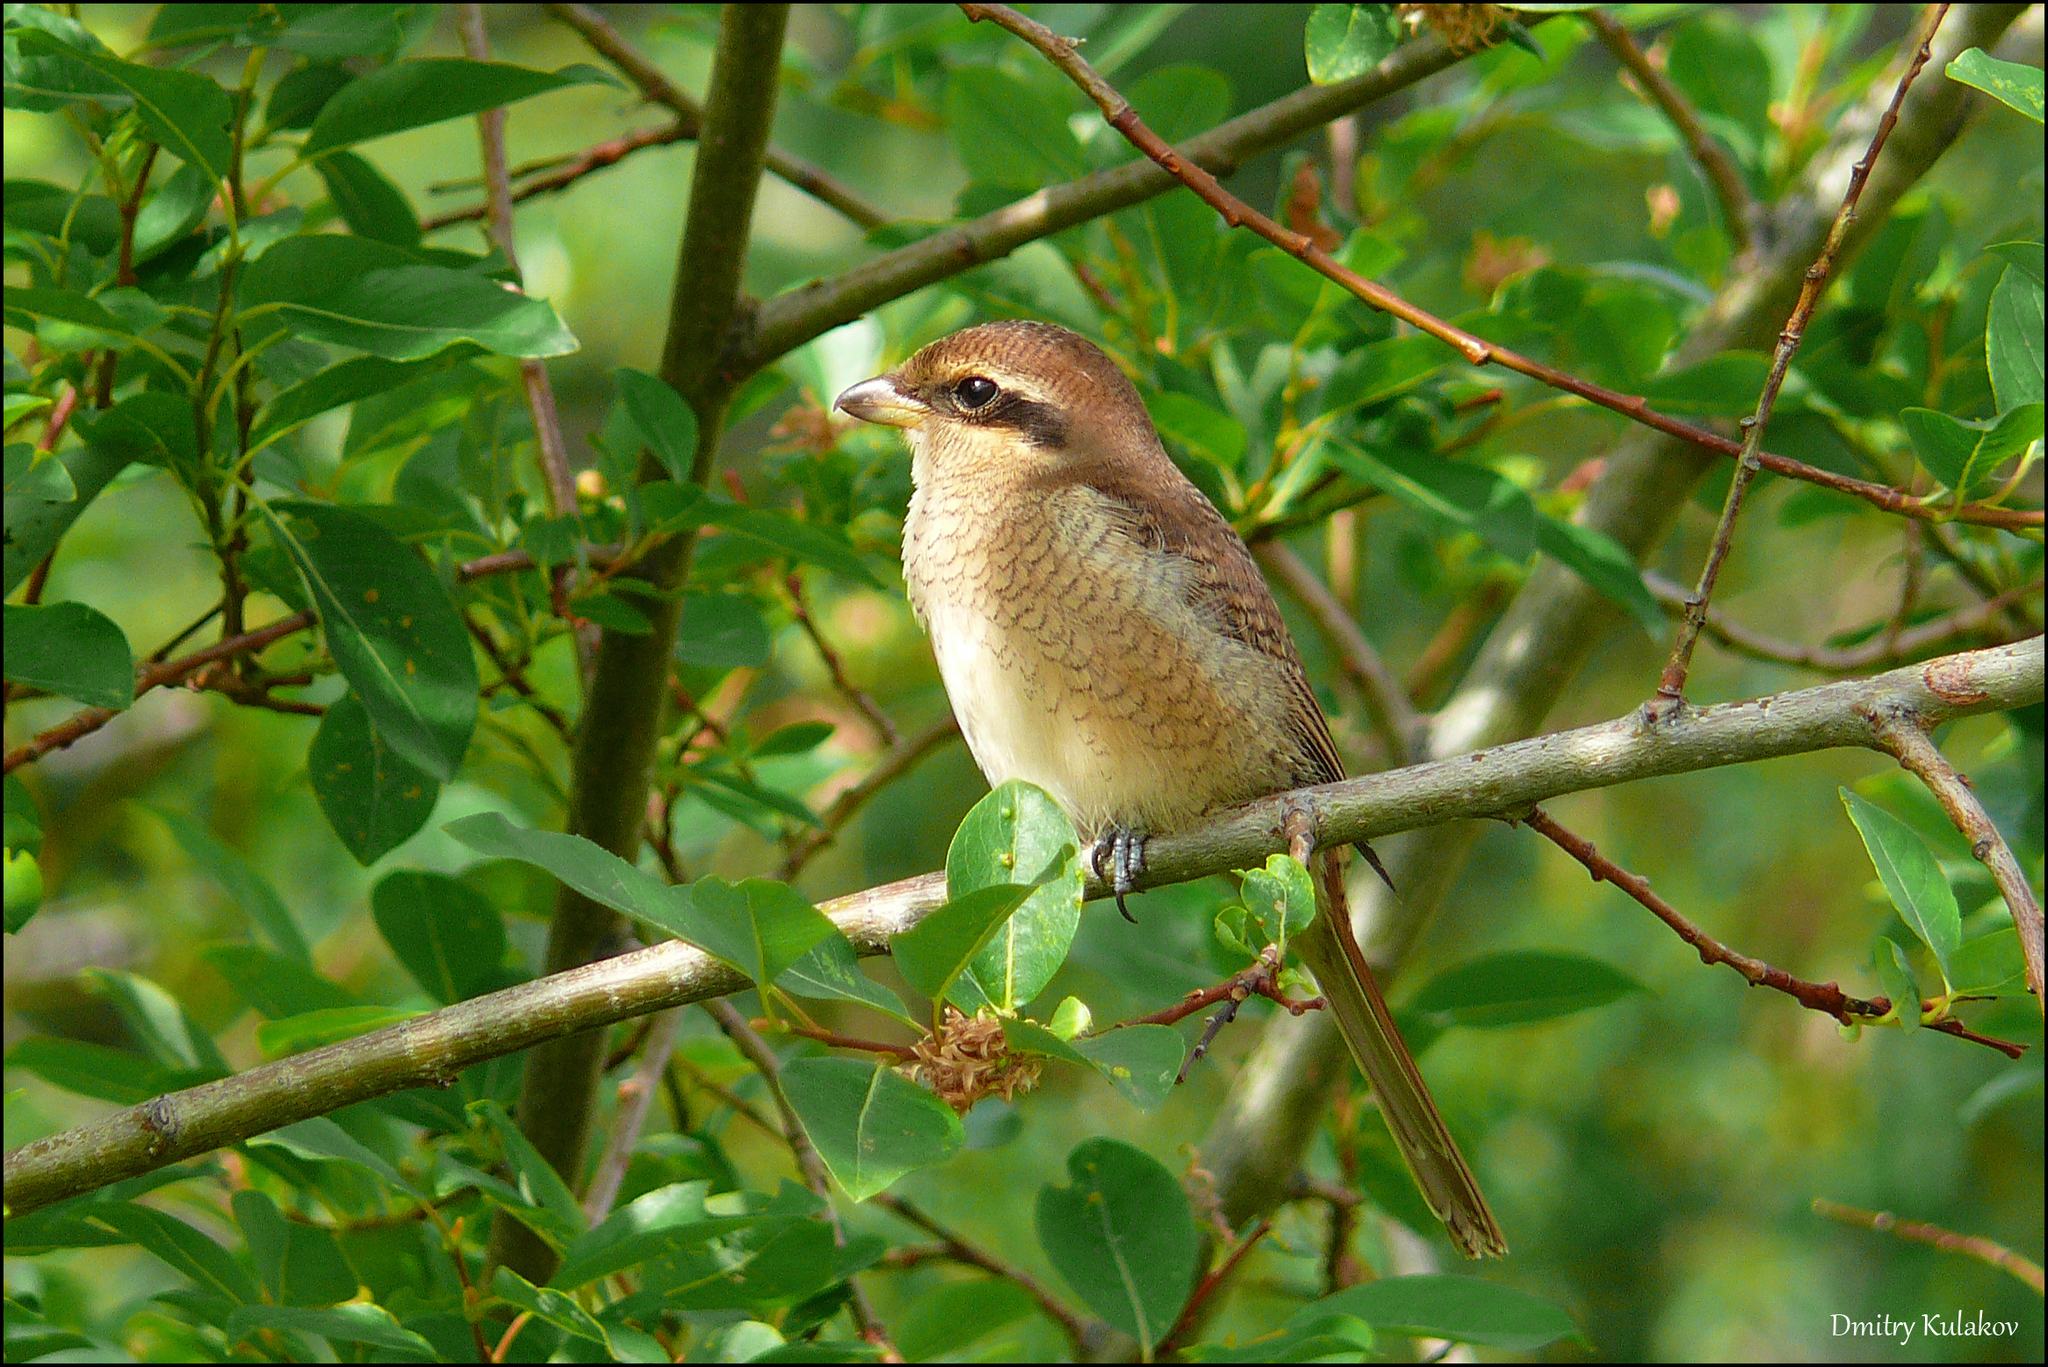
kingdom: Animalia
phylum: Chordata
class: Aves
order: Passeriformes
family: Laniidae
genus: Lanius
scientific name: Lanius cristatus
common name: Brown shrike
